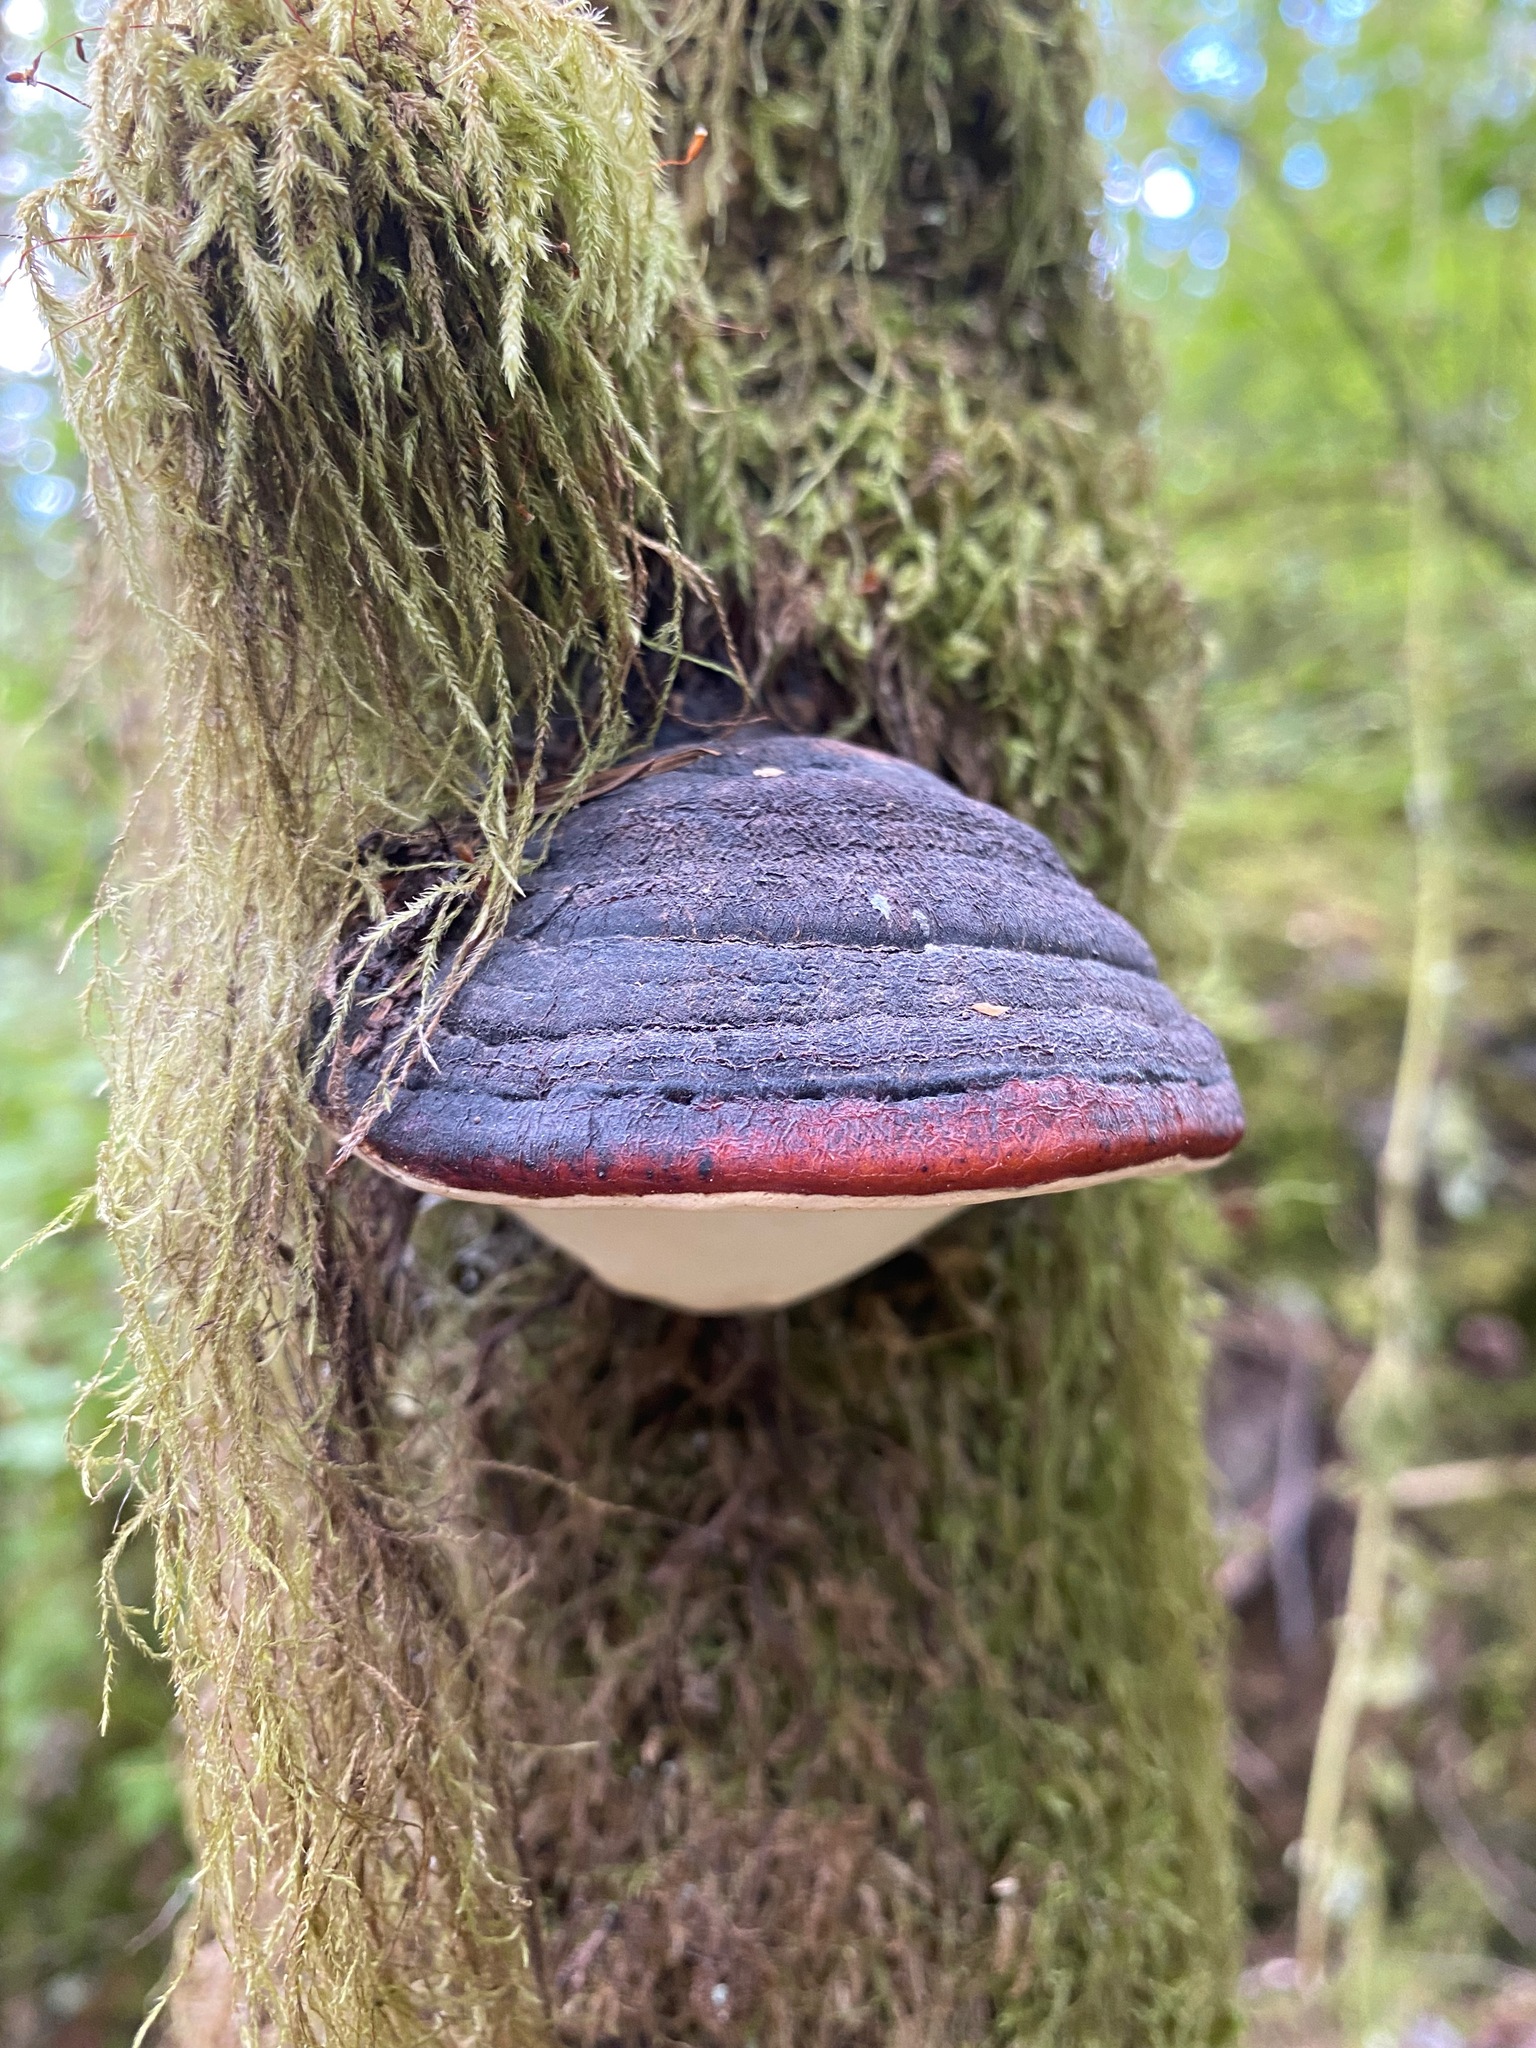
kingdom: Fungi
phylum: Basidiomycota
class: Agaricomycetes
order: Polyporales
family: Fomitopsidaceae
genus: Fomitopsis
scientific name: Fomitopsis mounceae
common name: Northern red belt
